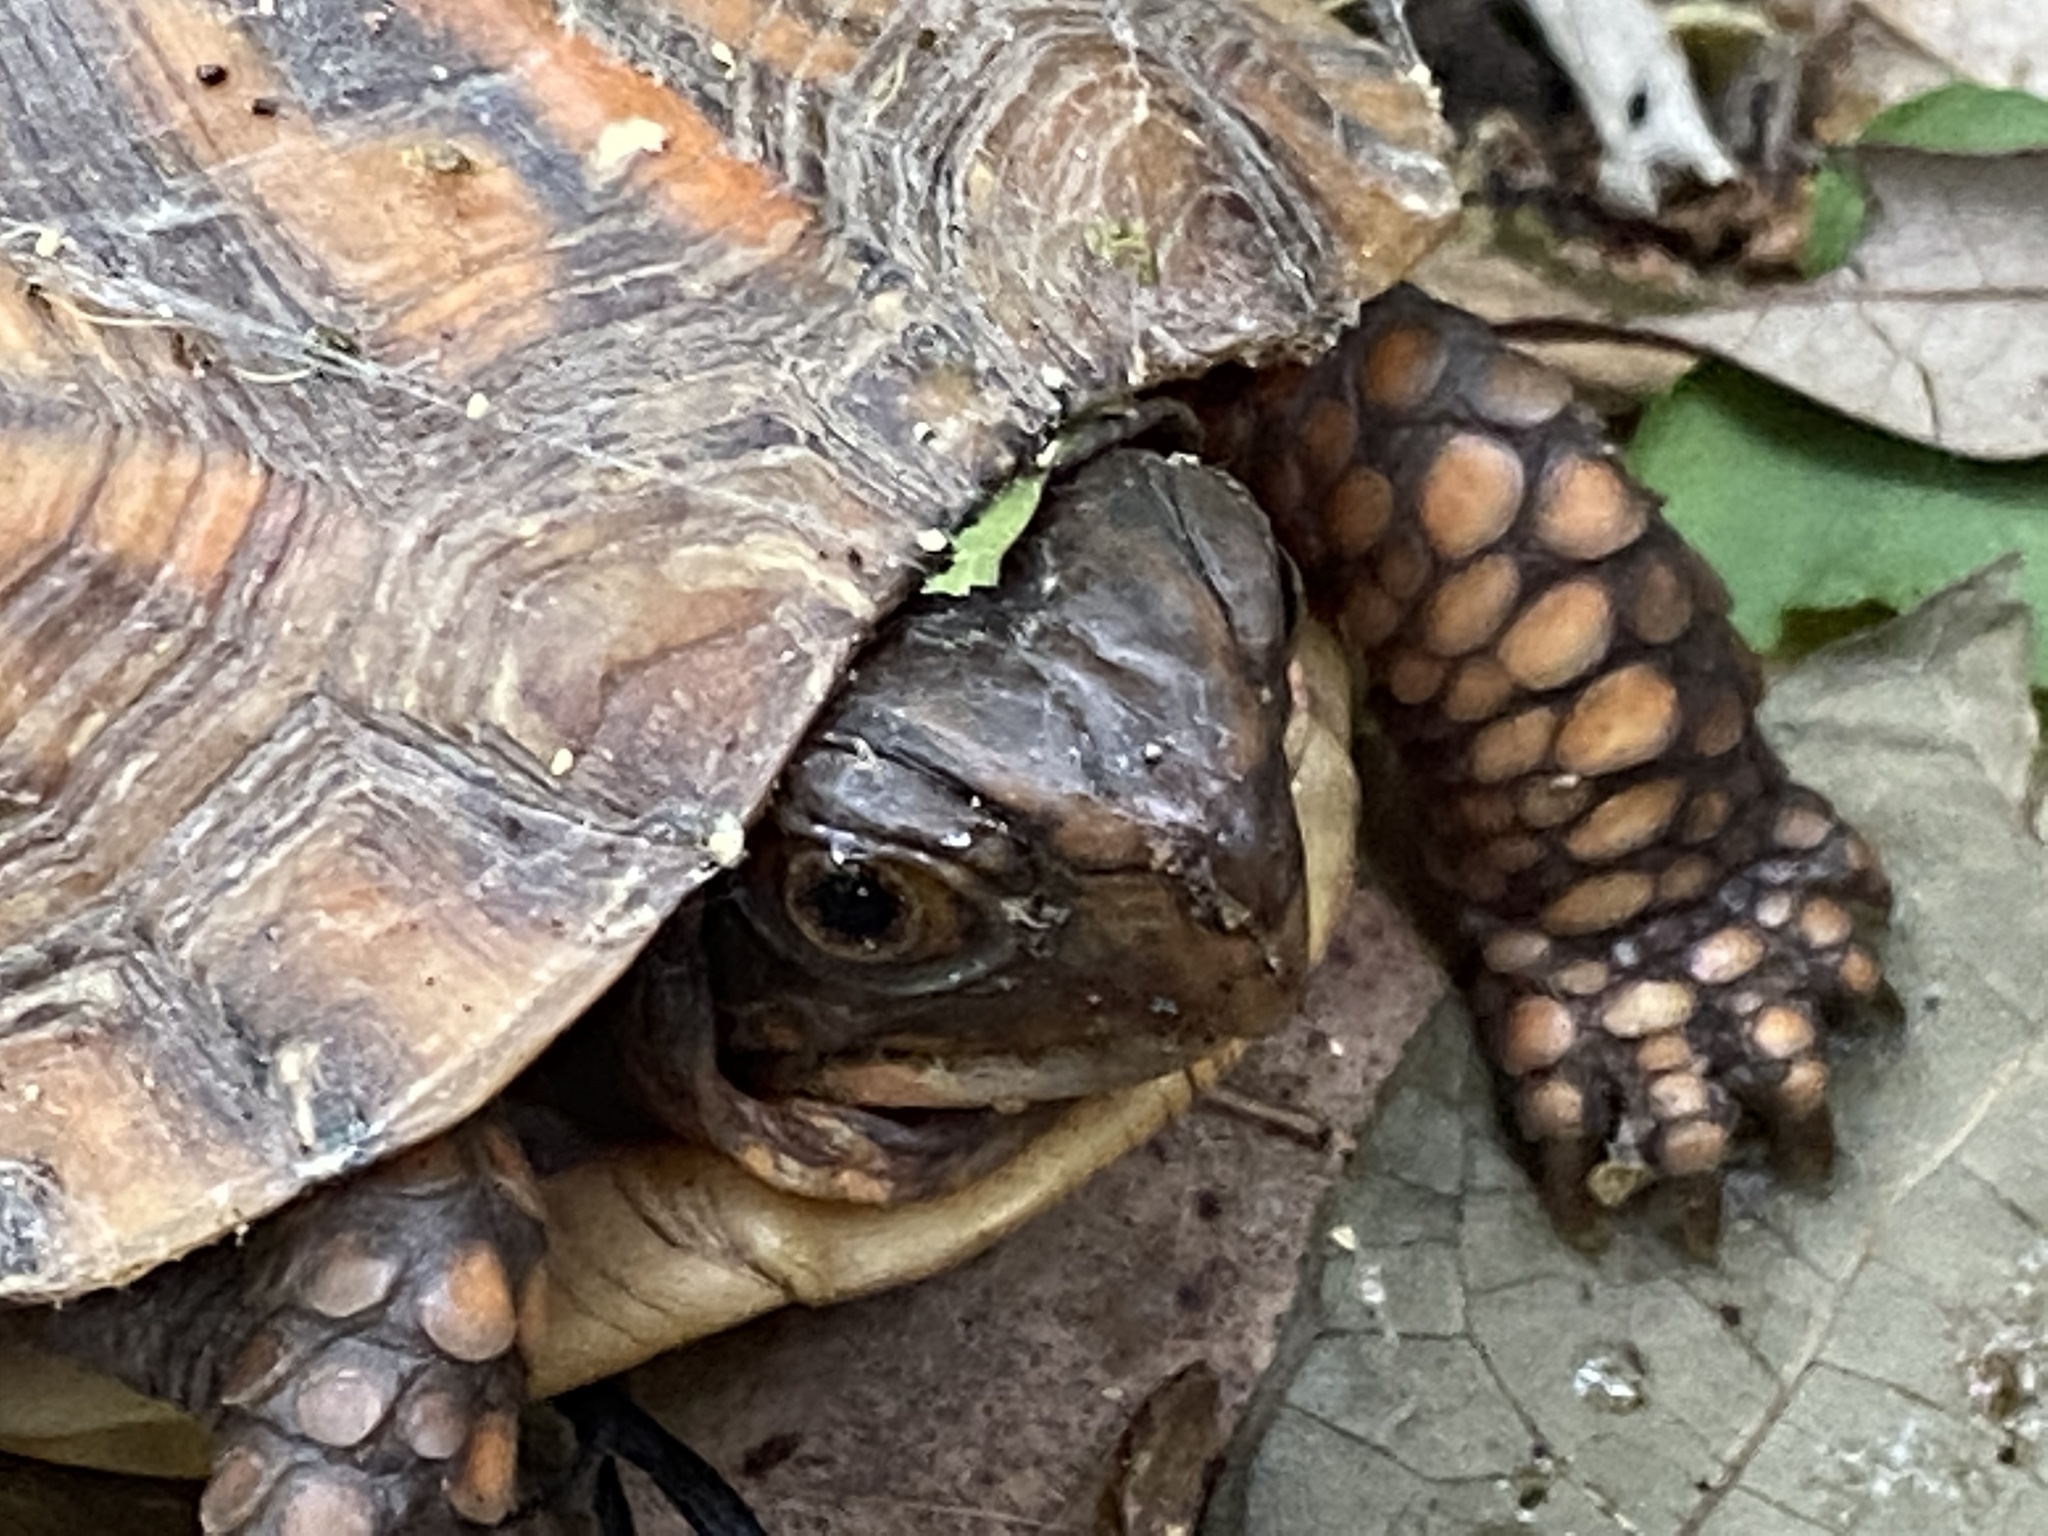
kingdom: Animalia
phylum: Chordata
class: Testudines
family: Emydidae
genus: Terrapene
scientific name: Terrapene carolina
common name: Common box turtle
